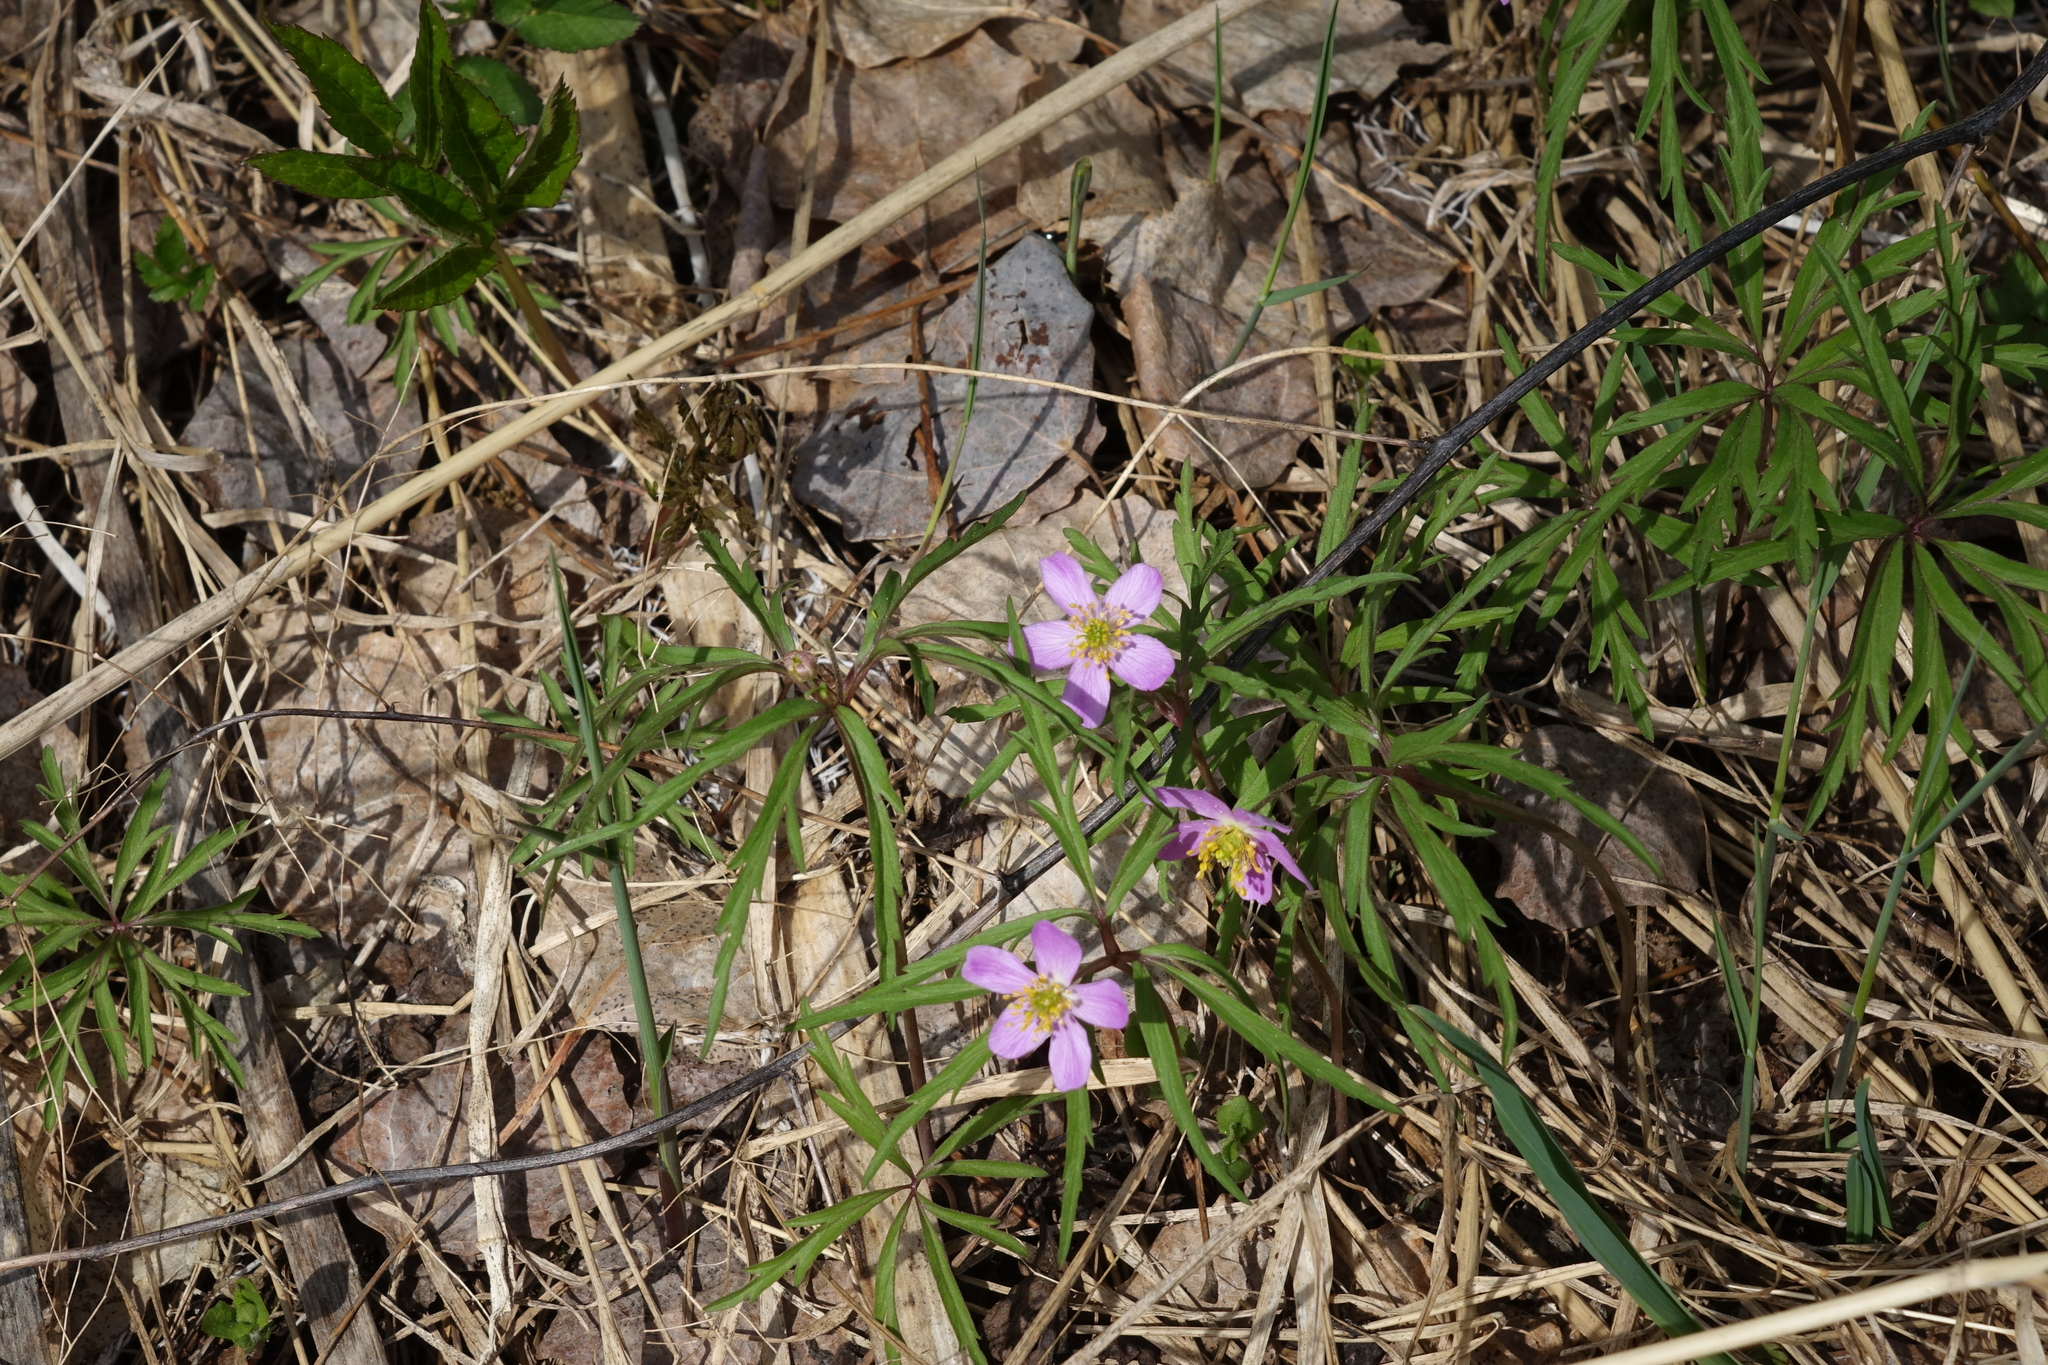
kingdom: Plantae
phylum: Tracheophyta
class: Magnoliopsida
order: Ranunculales
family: Ranunculaceae
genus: Anemone
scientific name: Anemone caerulea
